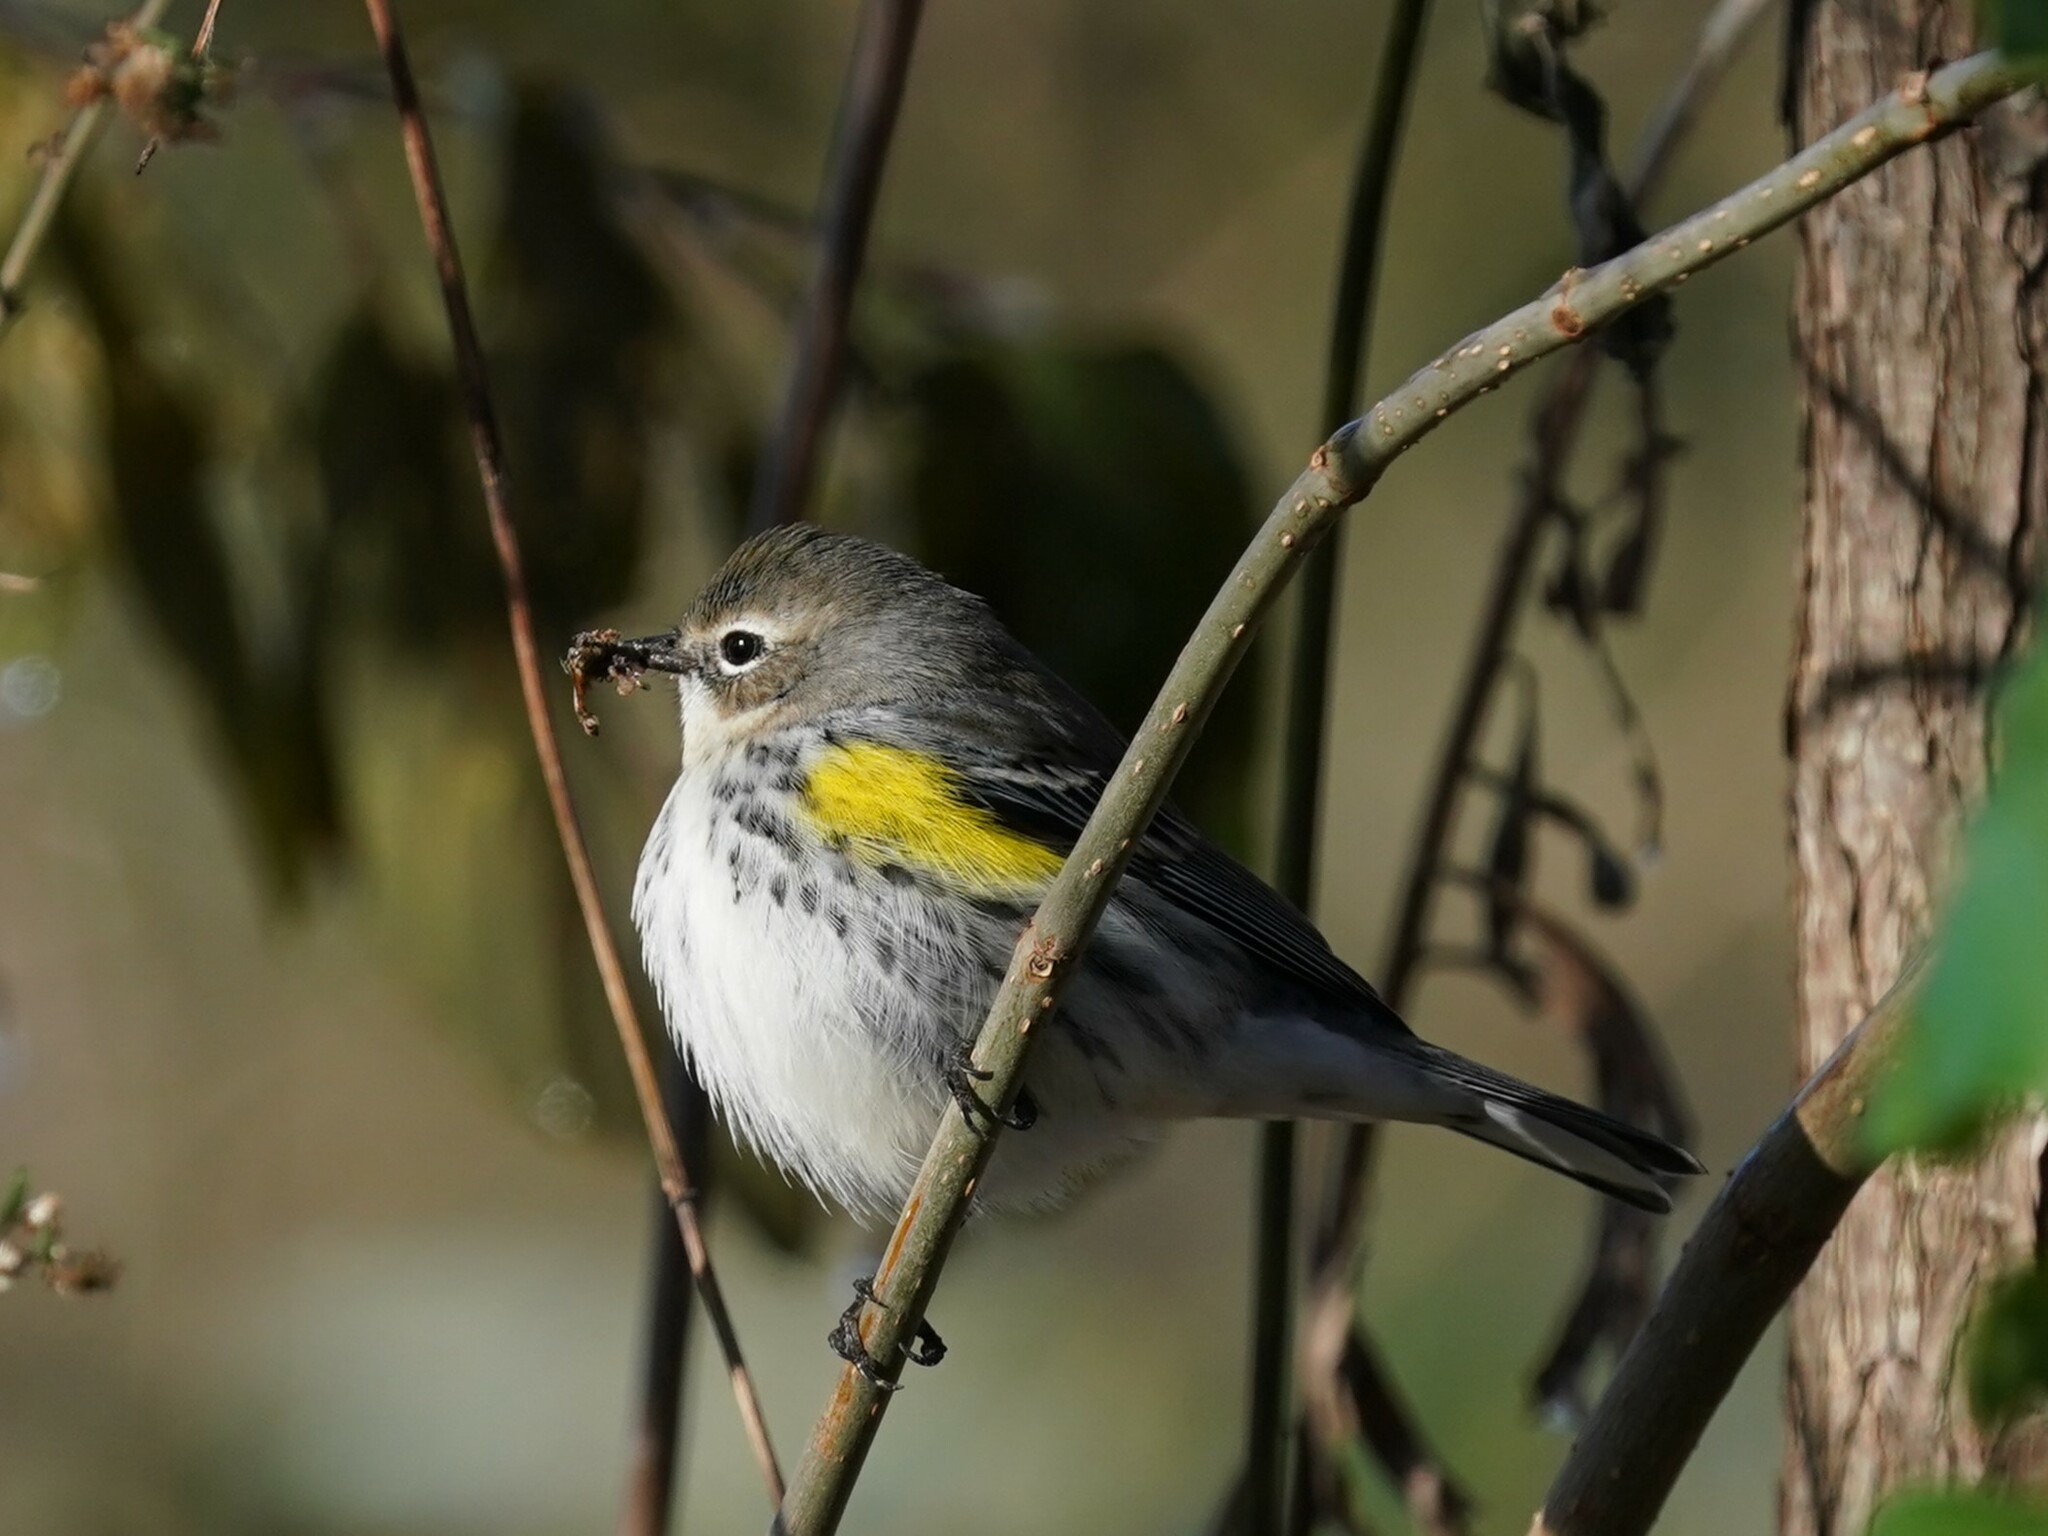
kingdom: Animalia
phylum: Chordata
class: Aves
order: Passeriformes
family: Parulidae
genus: Setophaga
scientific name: Setophaga coronata
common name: Myrtle warbler
